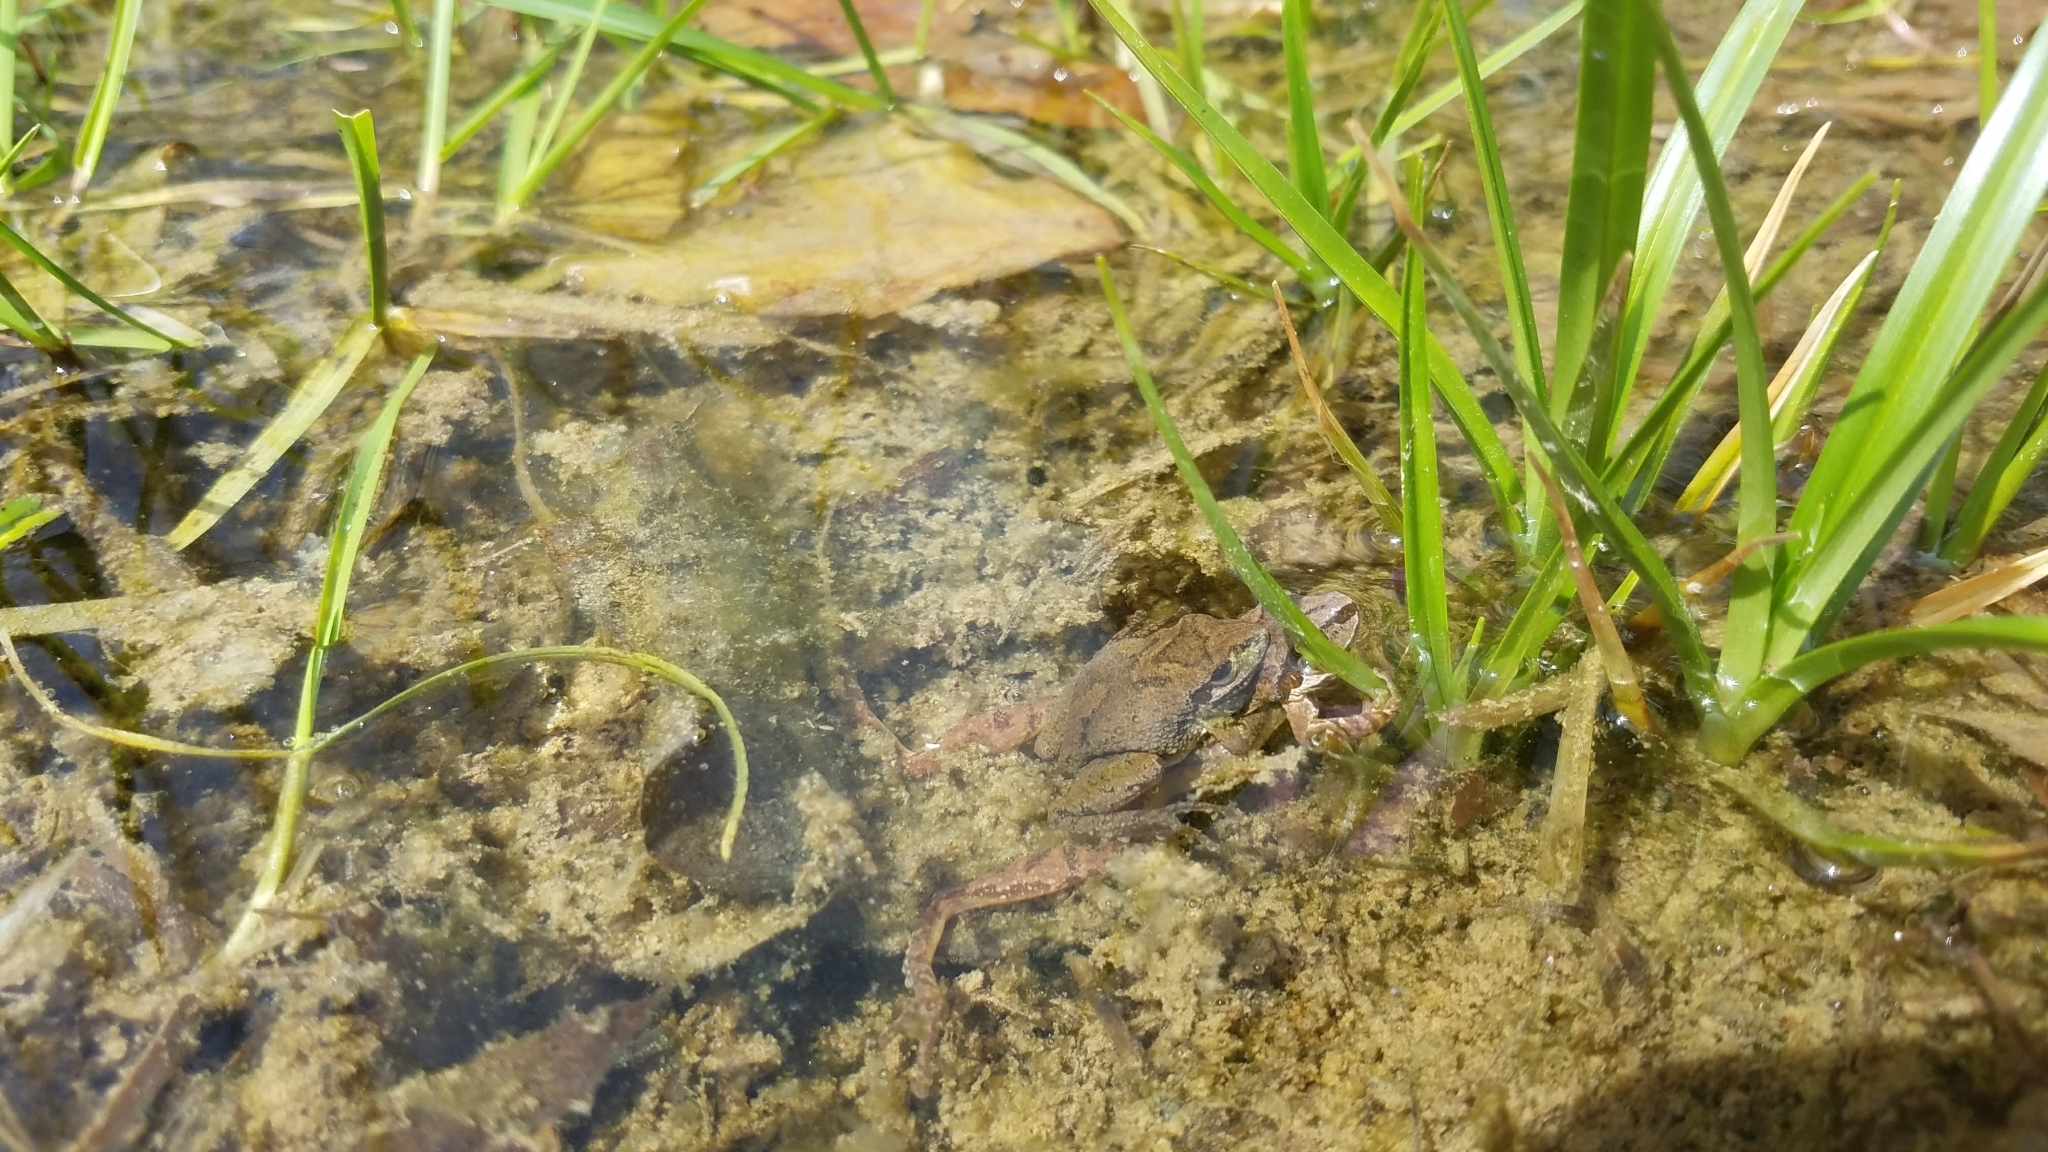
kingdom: Animalia
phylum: Chordata
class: Amphibia
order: Anura
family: Hylidae
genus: Pseudacris
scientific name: Pseudacris brachyphona
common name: Mountain chorus frog
